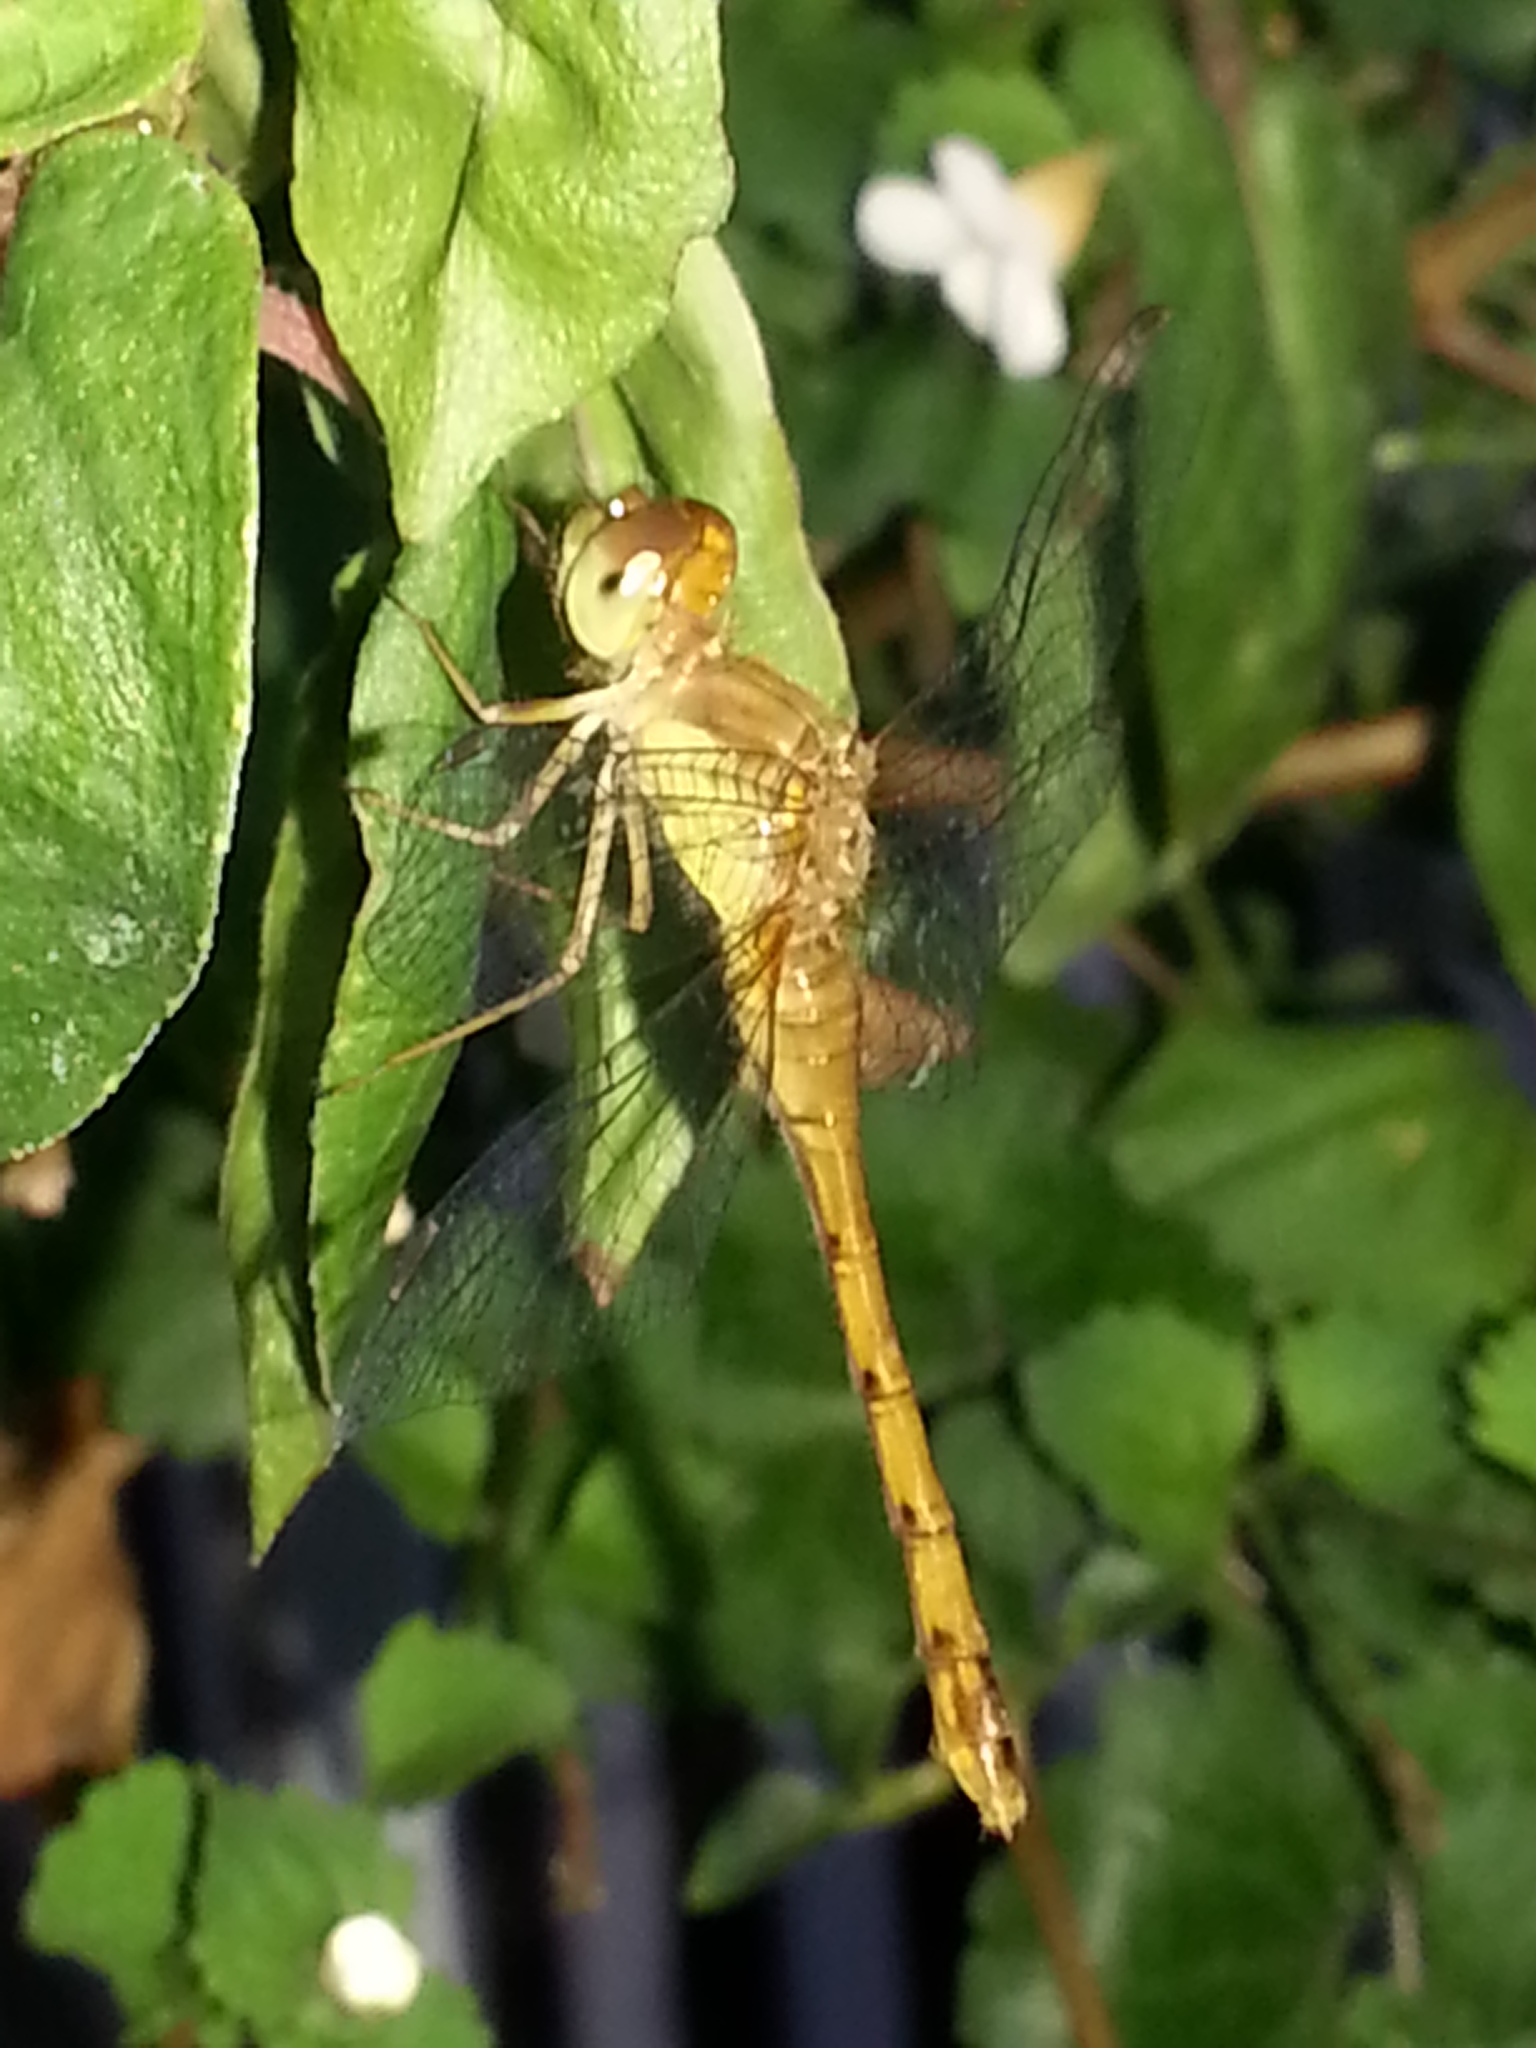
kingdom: Animalia
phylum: Arthropoda
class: Insecta
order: Odonata
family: Libellulidae
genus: Sympetrum
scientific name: Sympetrum vicinum
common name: Autumn meadowhawk
